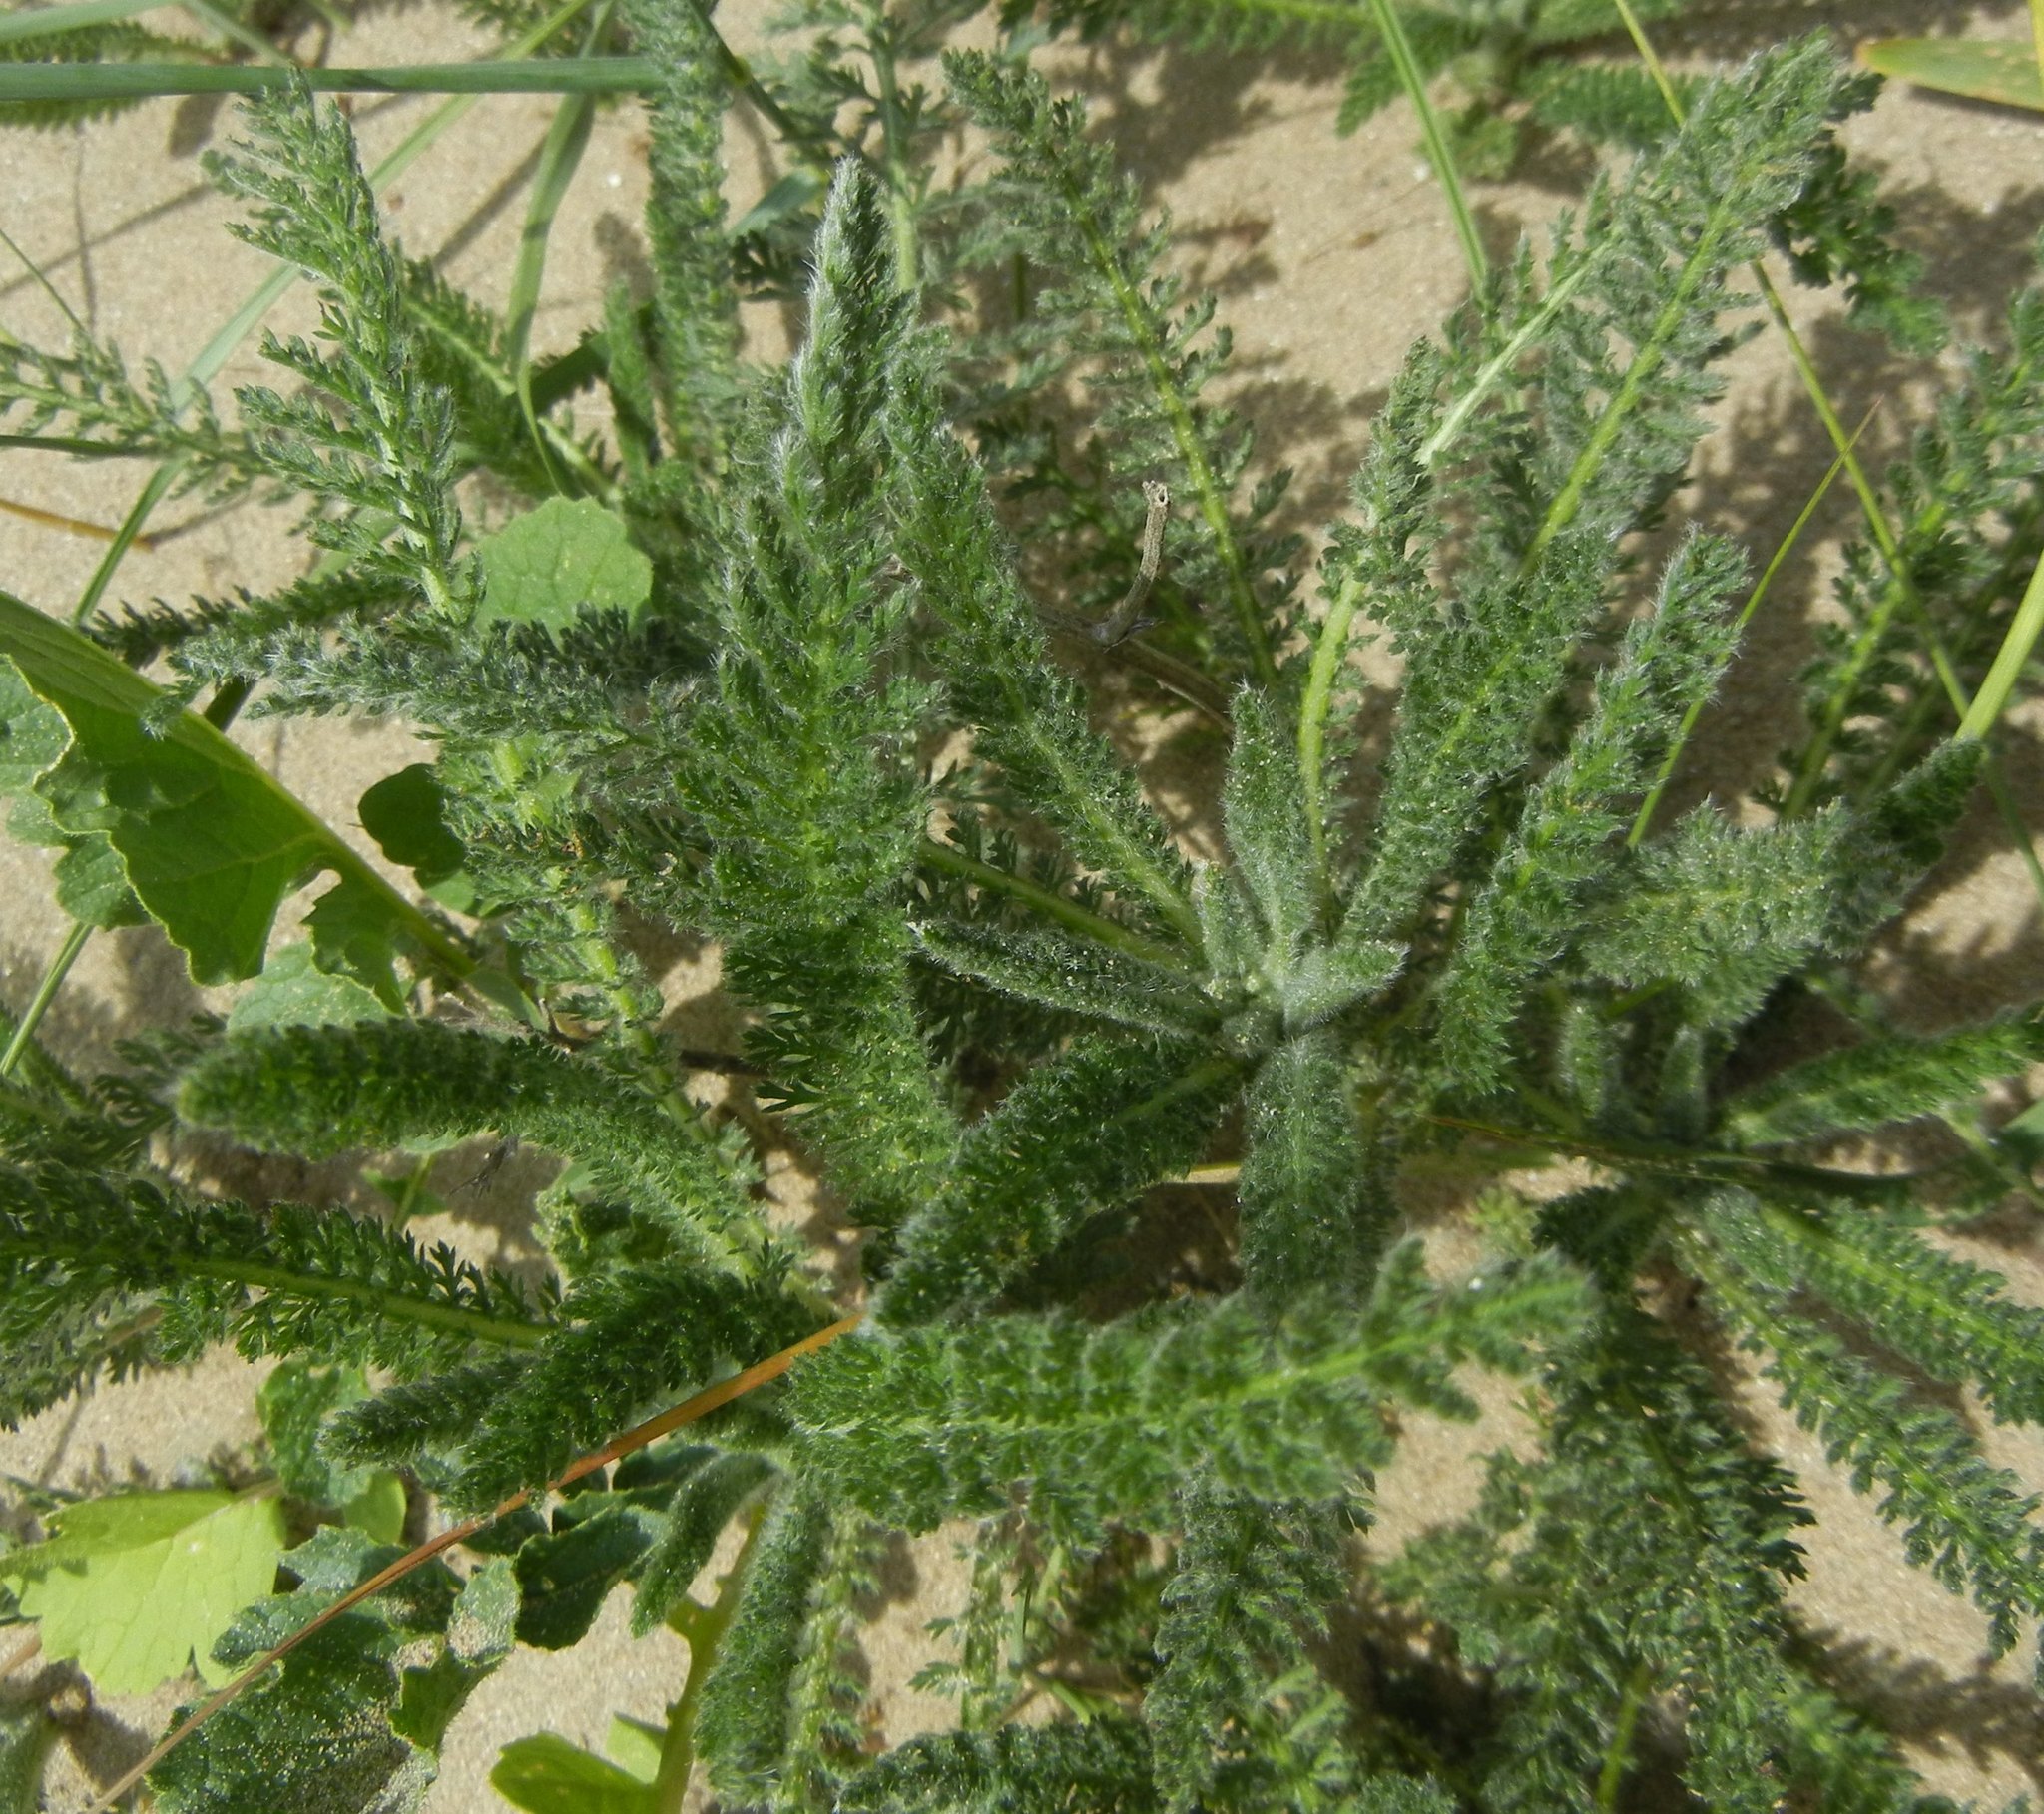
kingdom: Plantae
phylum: Tracheophyta
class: Magnoliopsida
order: Asterales
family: Asteraceae
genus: Achillea
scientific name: Achillea millefolium
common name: Yarrow
